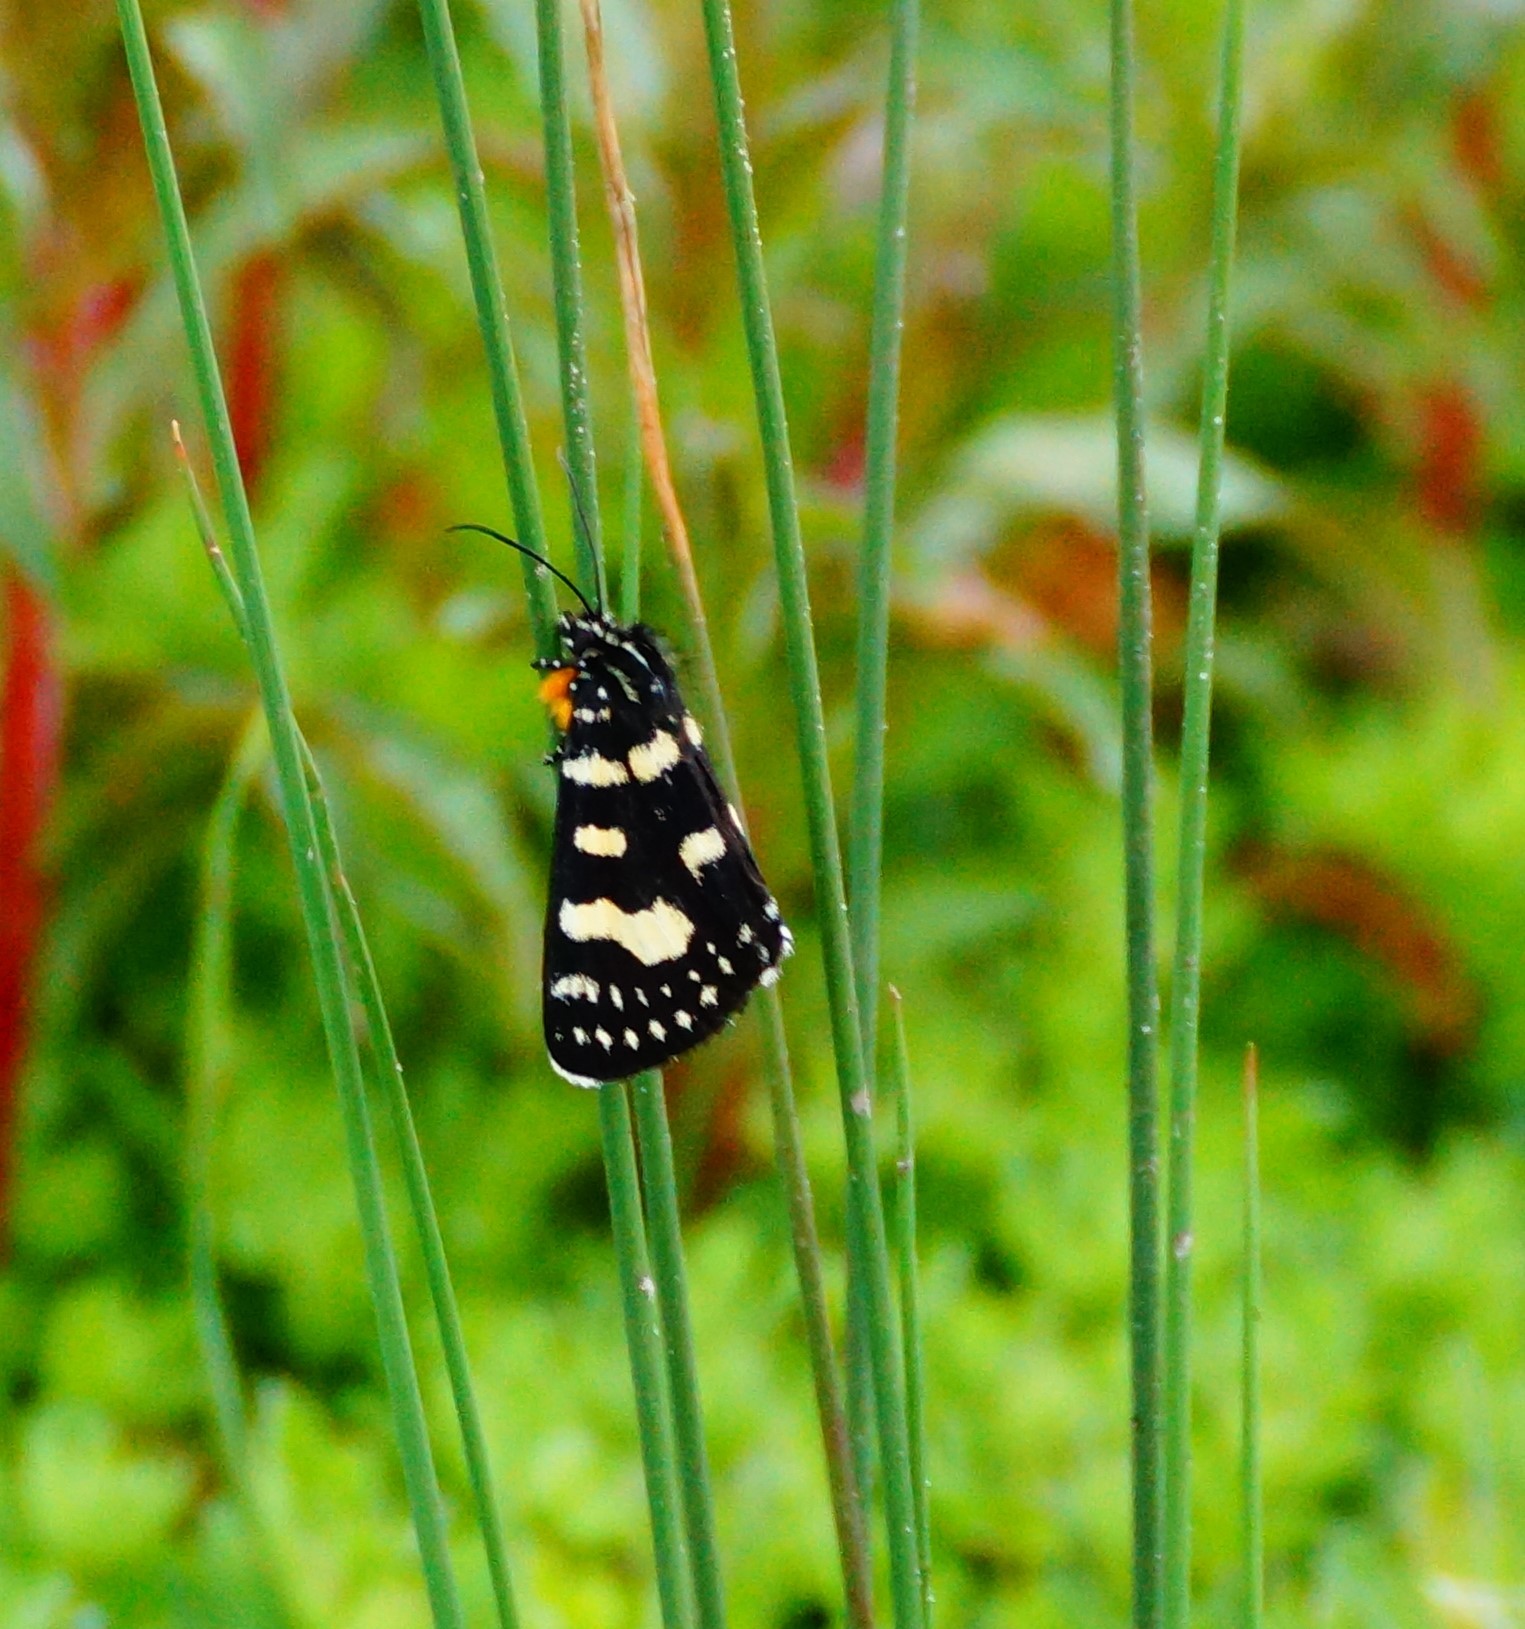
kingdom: Animalia
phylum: Arthropoda
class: Insecta
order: Lepidoptera
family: Noctuidae
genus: Phalaenoides
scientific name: Phalaenoides tristifica
